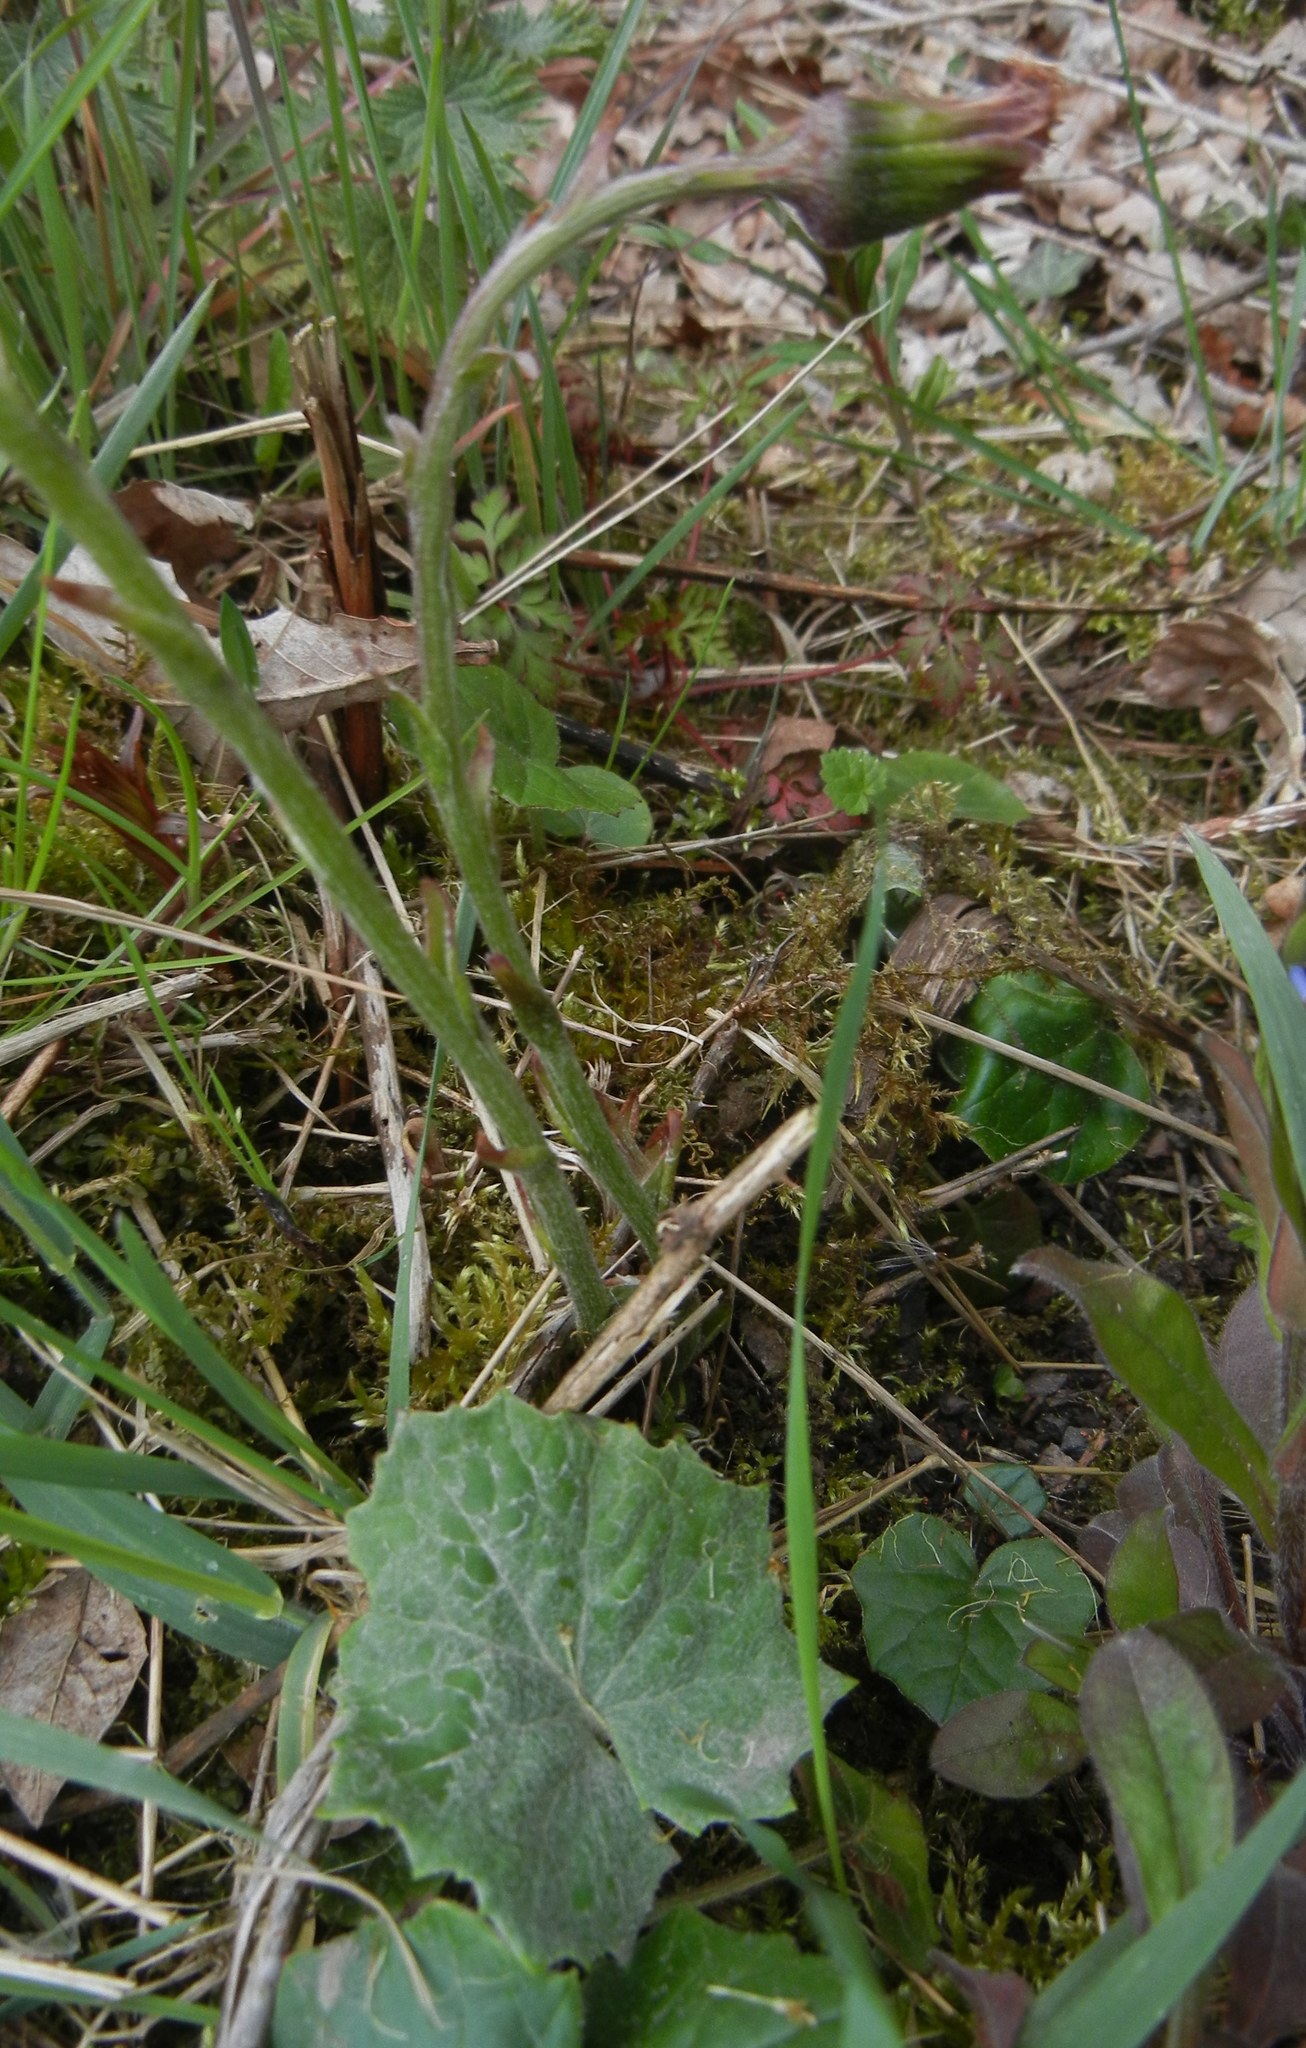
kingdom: Plantae
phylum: Tracheophyta
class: Magnoliopsida
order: Asterales
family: Asteraceae
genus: Tussilago
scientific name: Tussilago farfara
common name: Coltsfoot
